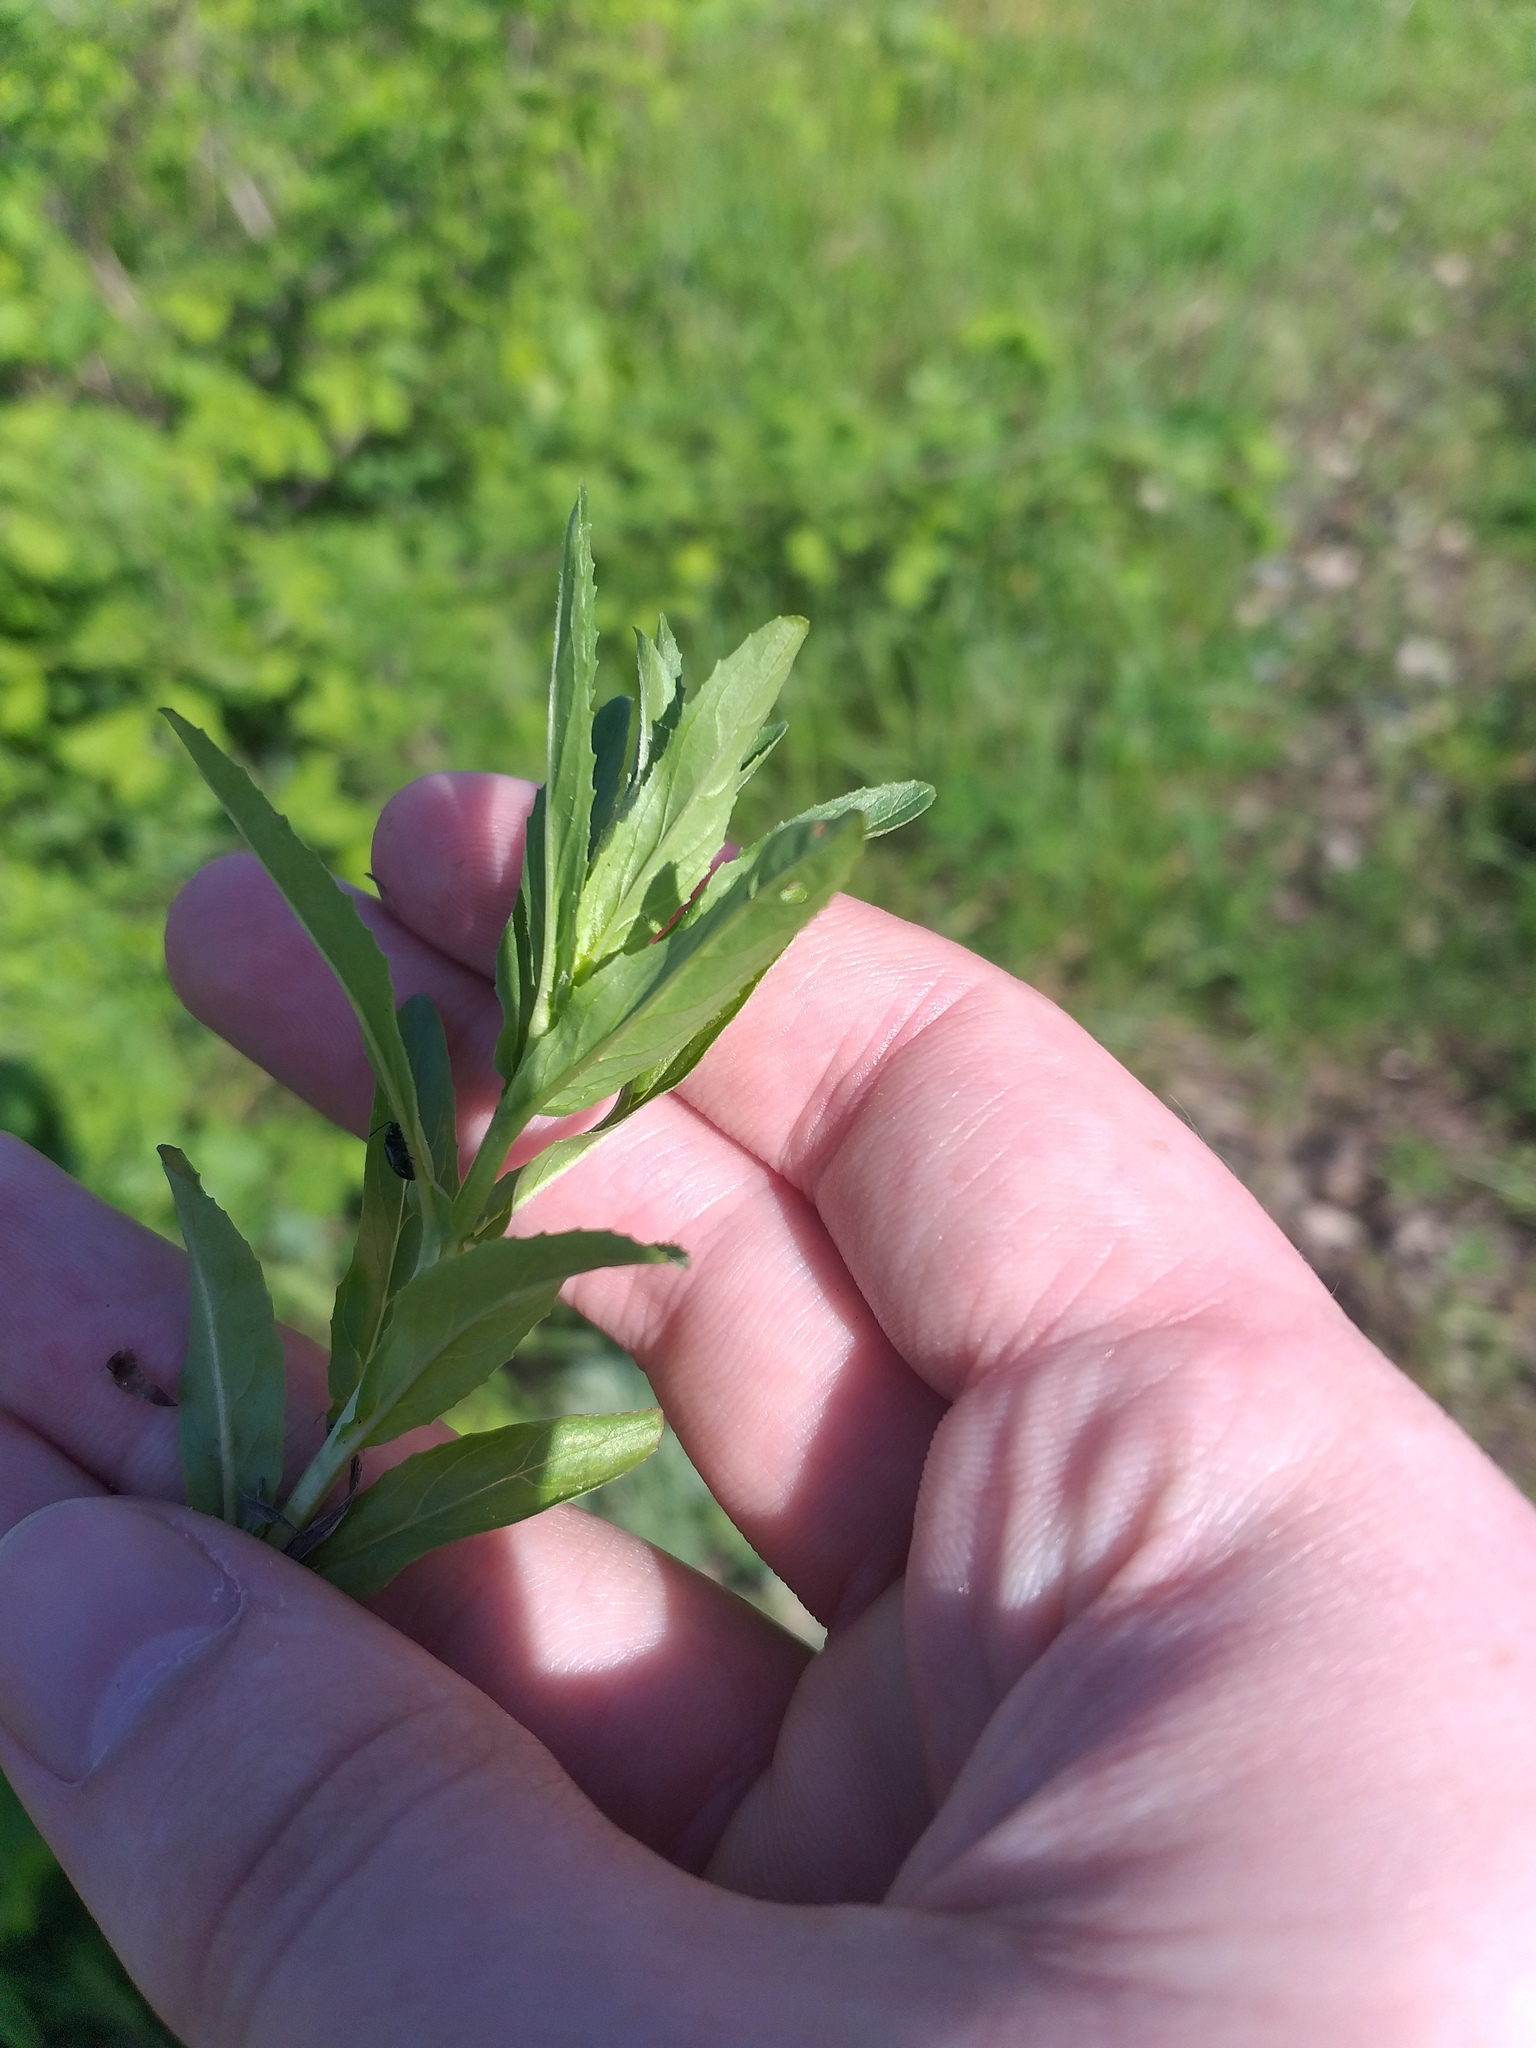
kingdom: Plantae
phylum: Tracheophyta
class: Magnoliopsida
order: Myrtales
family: Onagraceae
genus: Epilobium
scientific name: Epilobium tetragonum
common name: Square-stemmed willowherb
